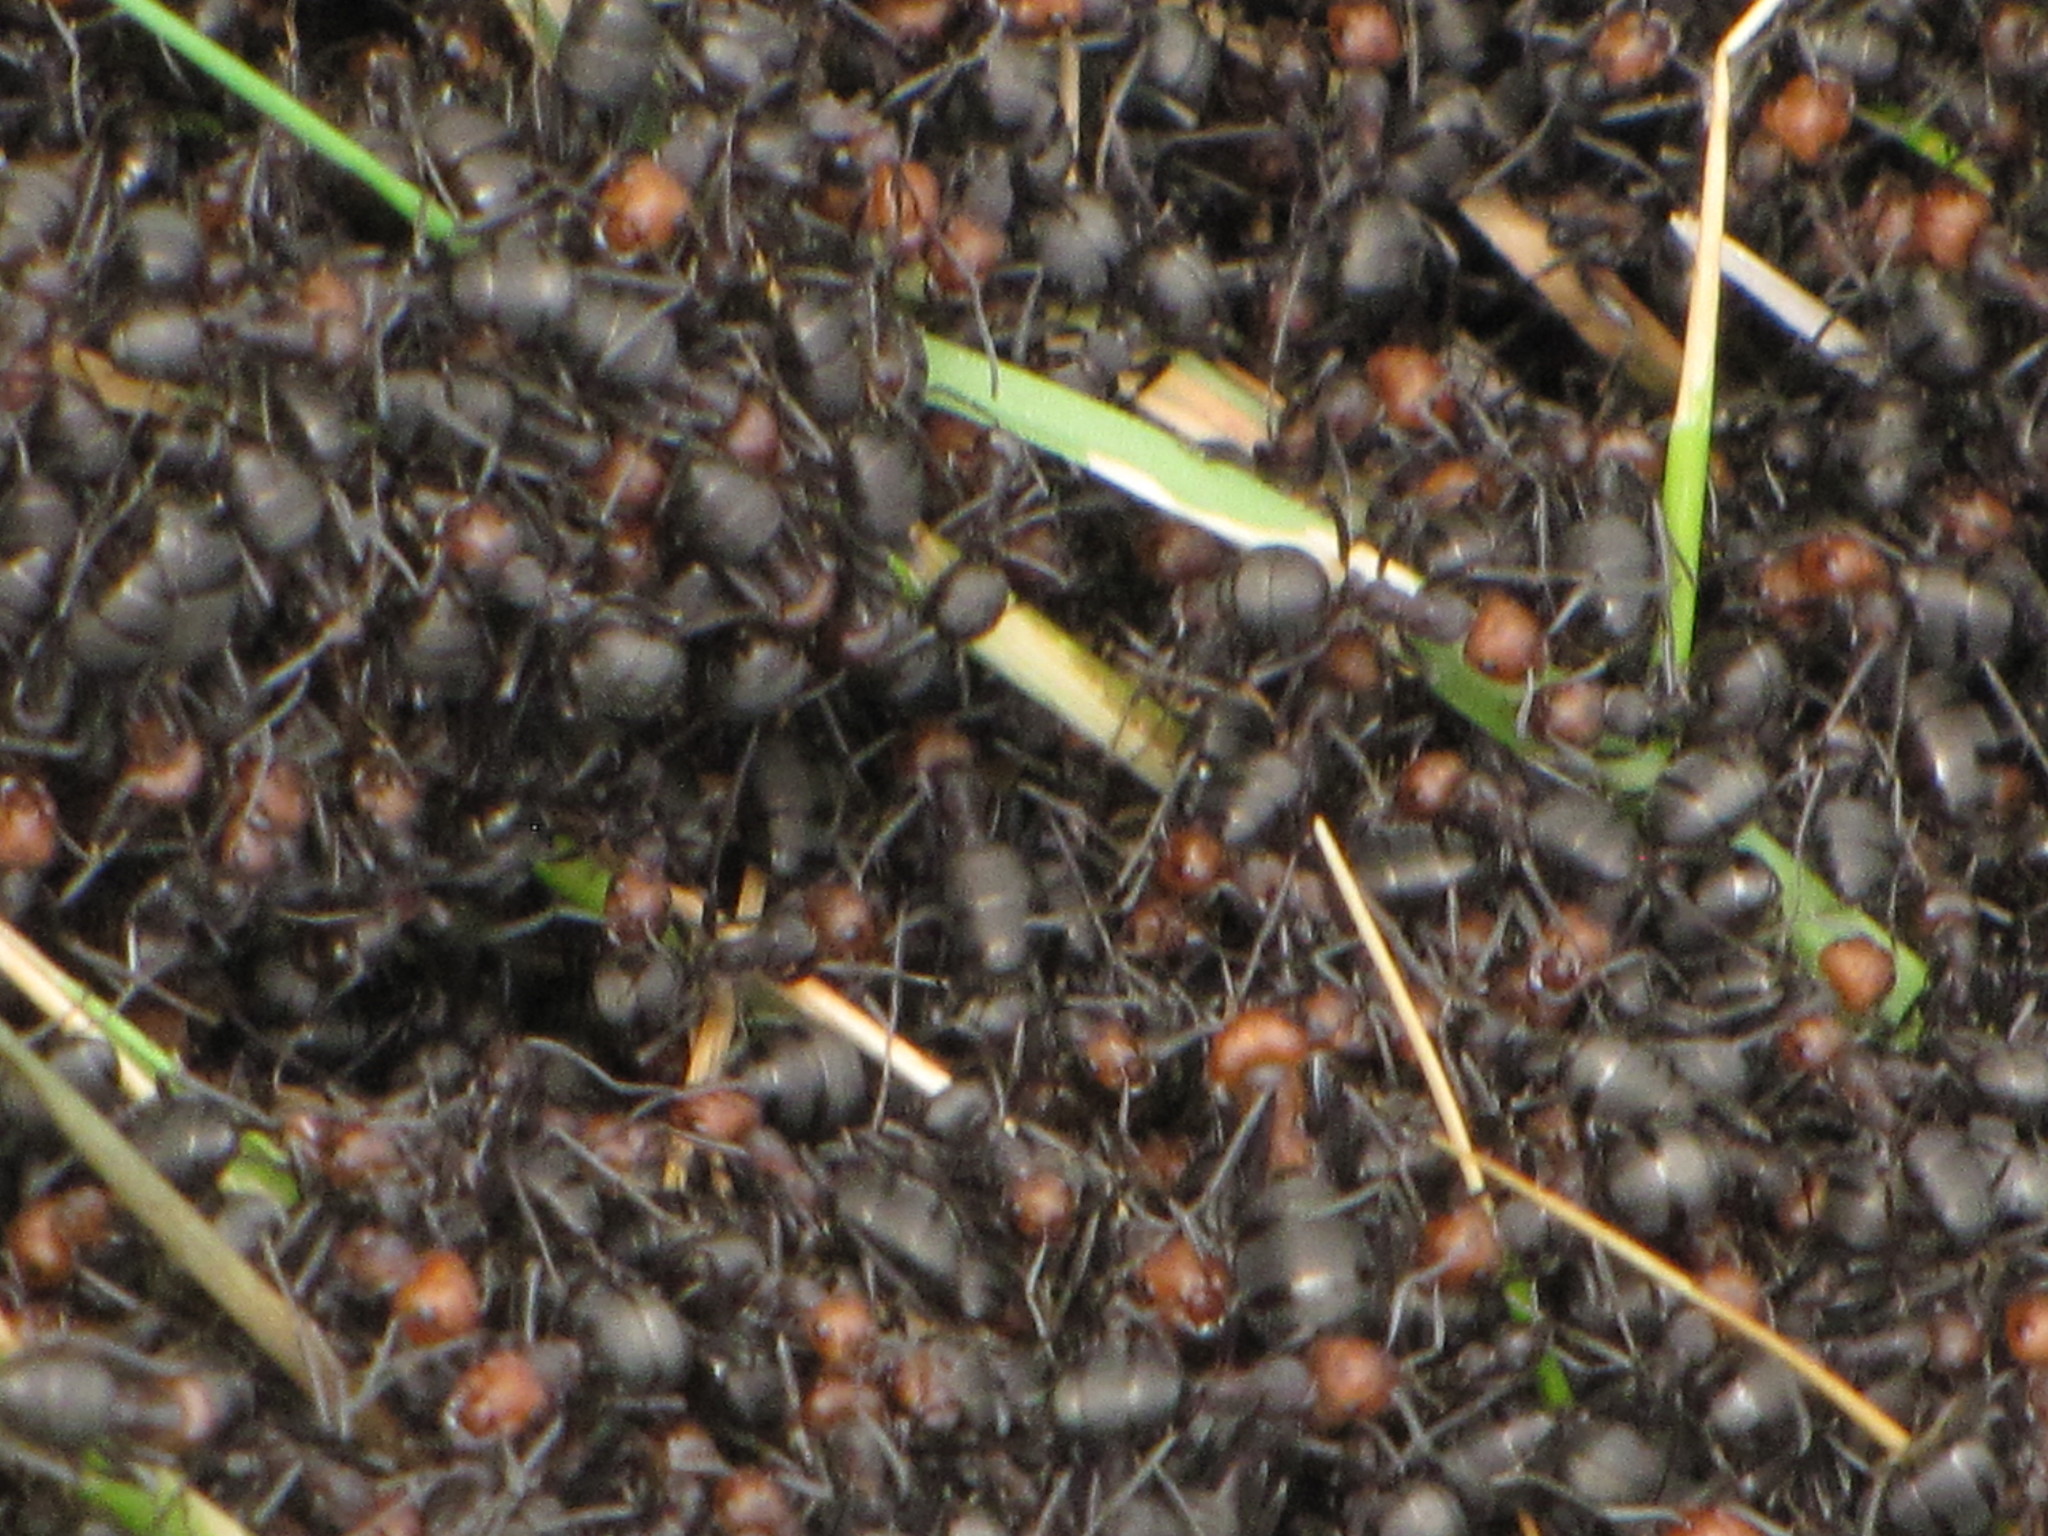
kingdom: Animalia
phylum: Arthropoda
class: Insecta
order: Hymenoptera
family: Formicidae
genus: Formica
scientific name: Formica obscuripes
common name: Western thatching ant
